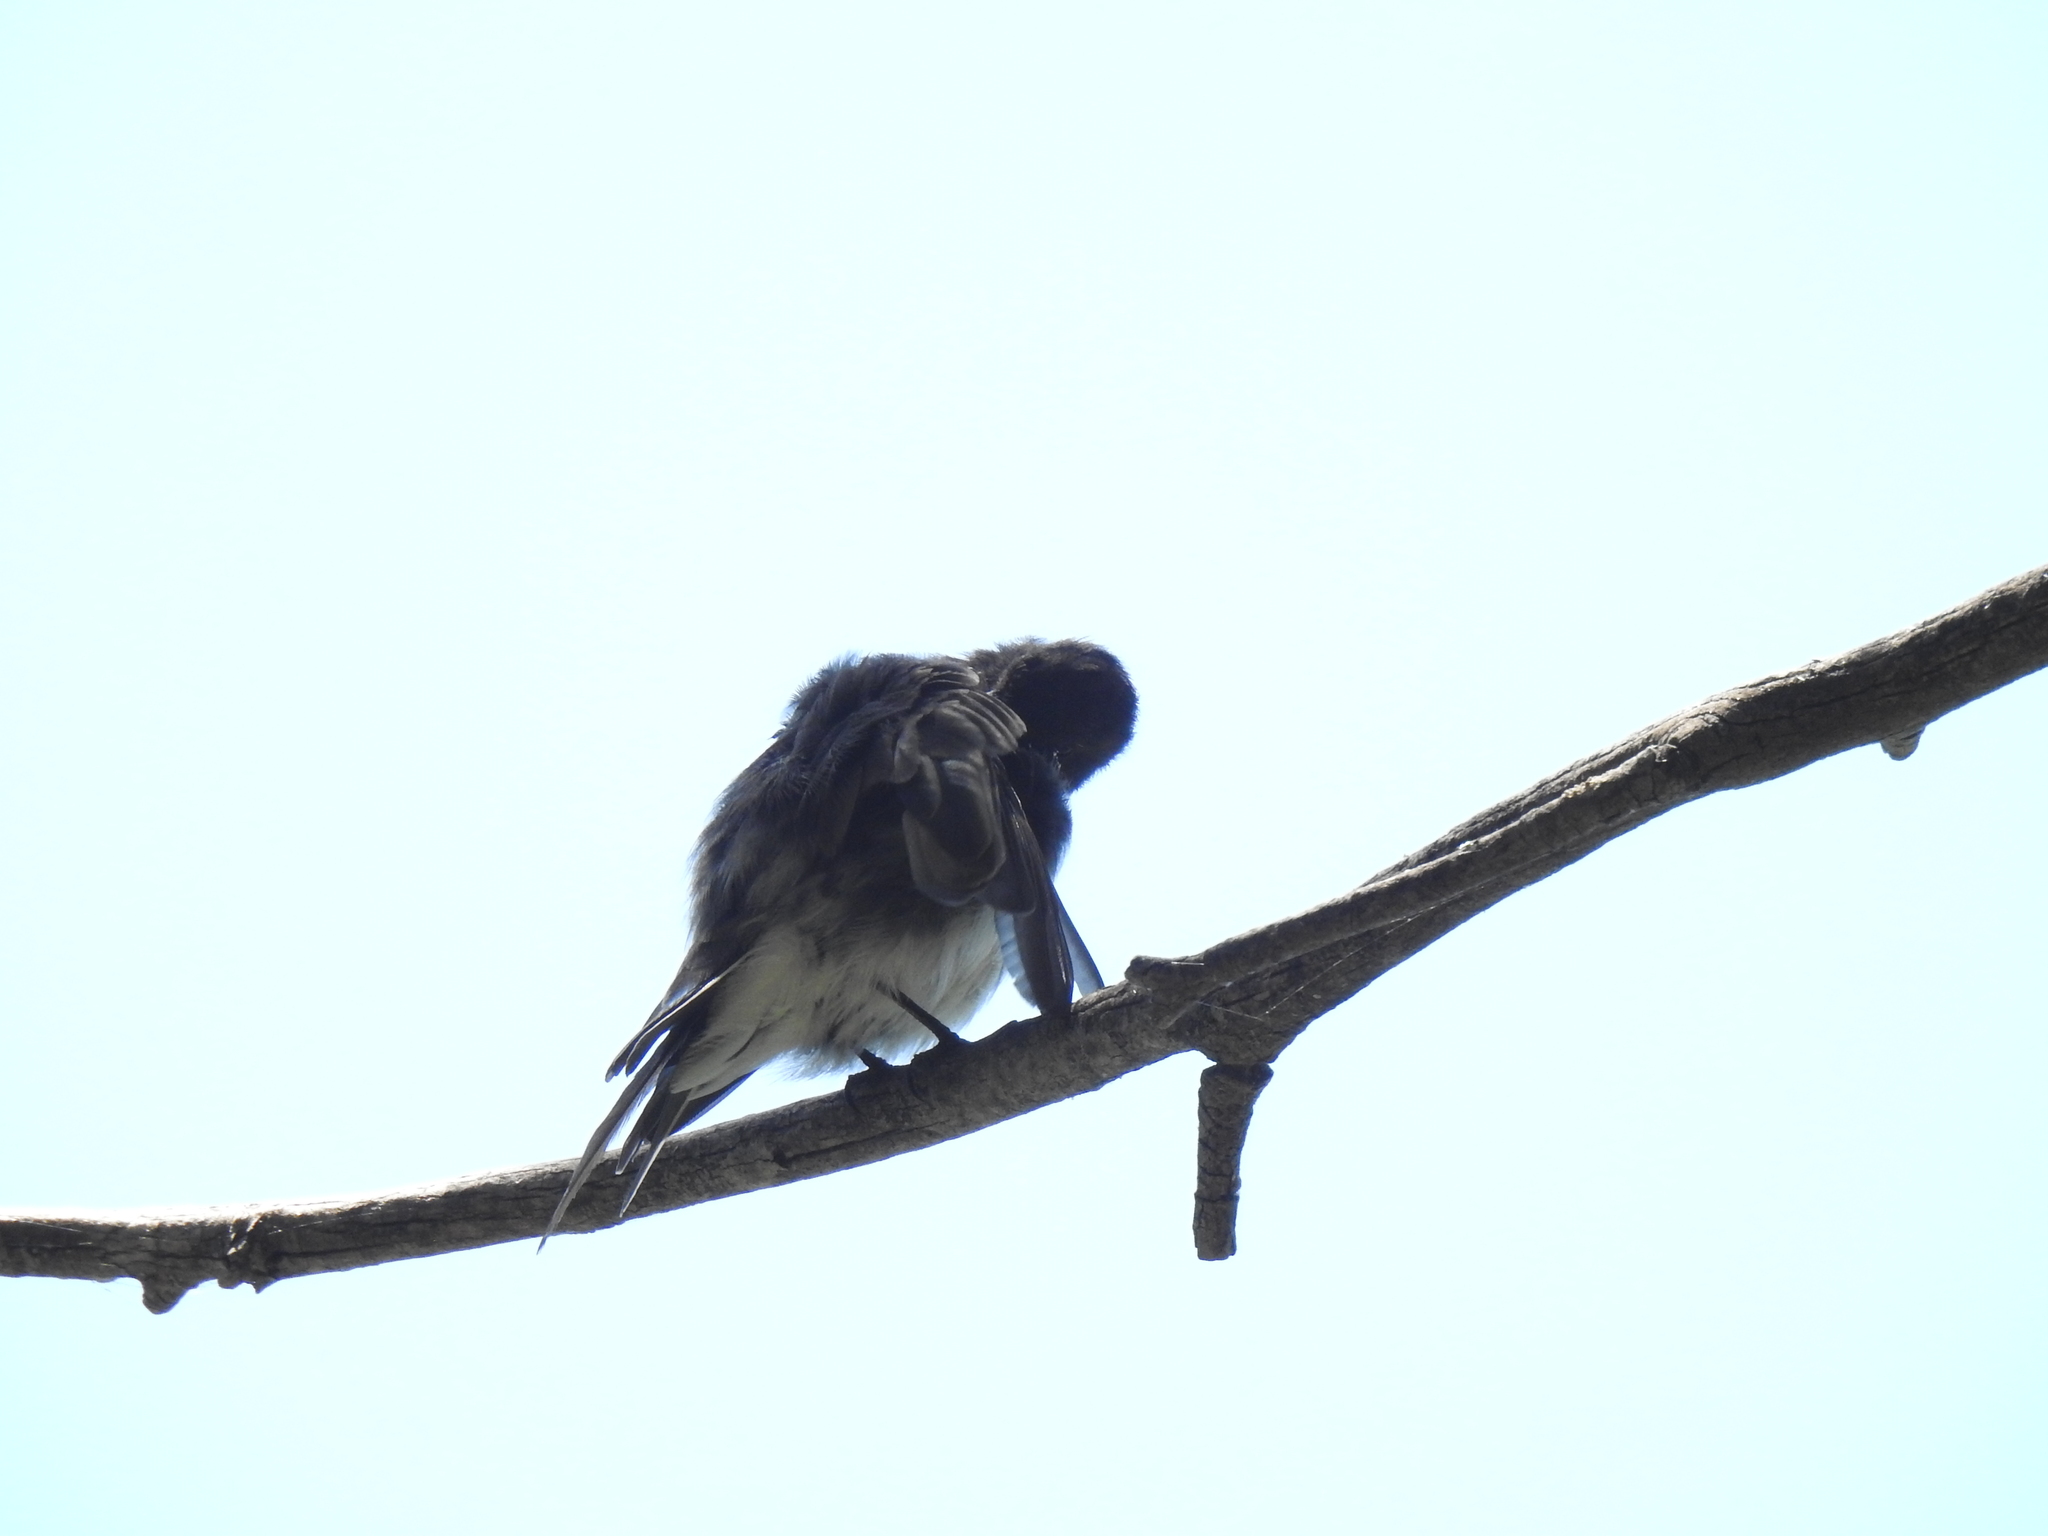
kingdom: Animalia
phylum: Chordata
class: Aves
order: Passeriformes
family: Tyrannidae
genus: Sayornis
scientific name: Sayornis nigricans
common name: Black phoebe
